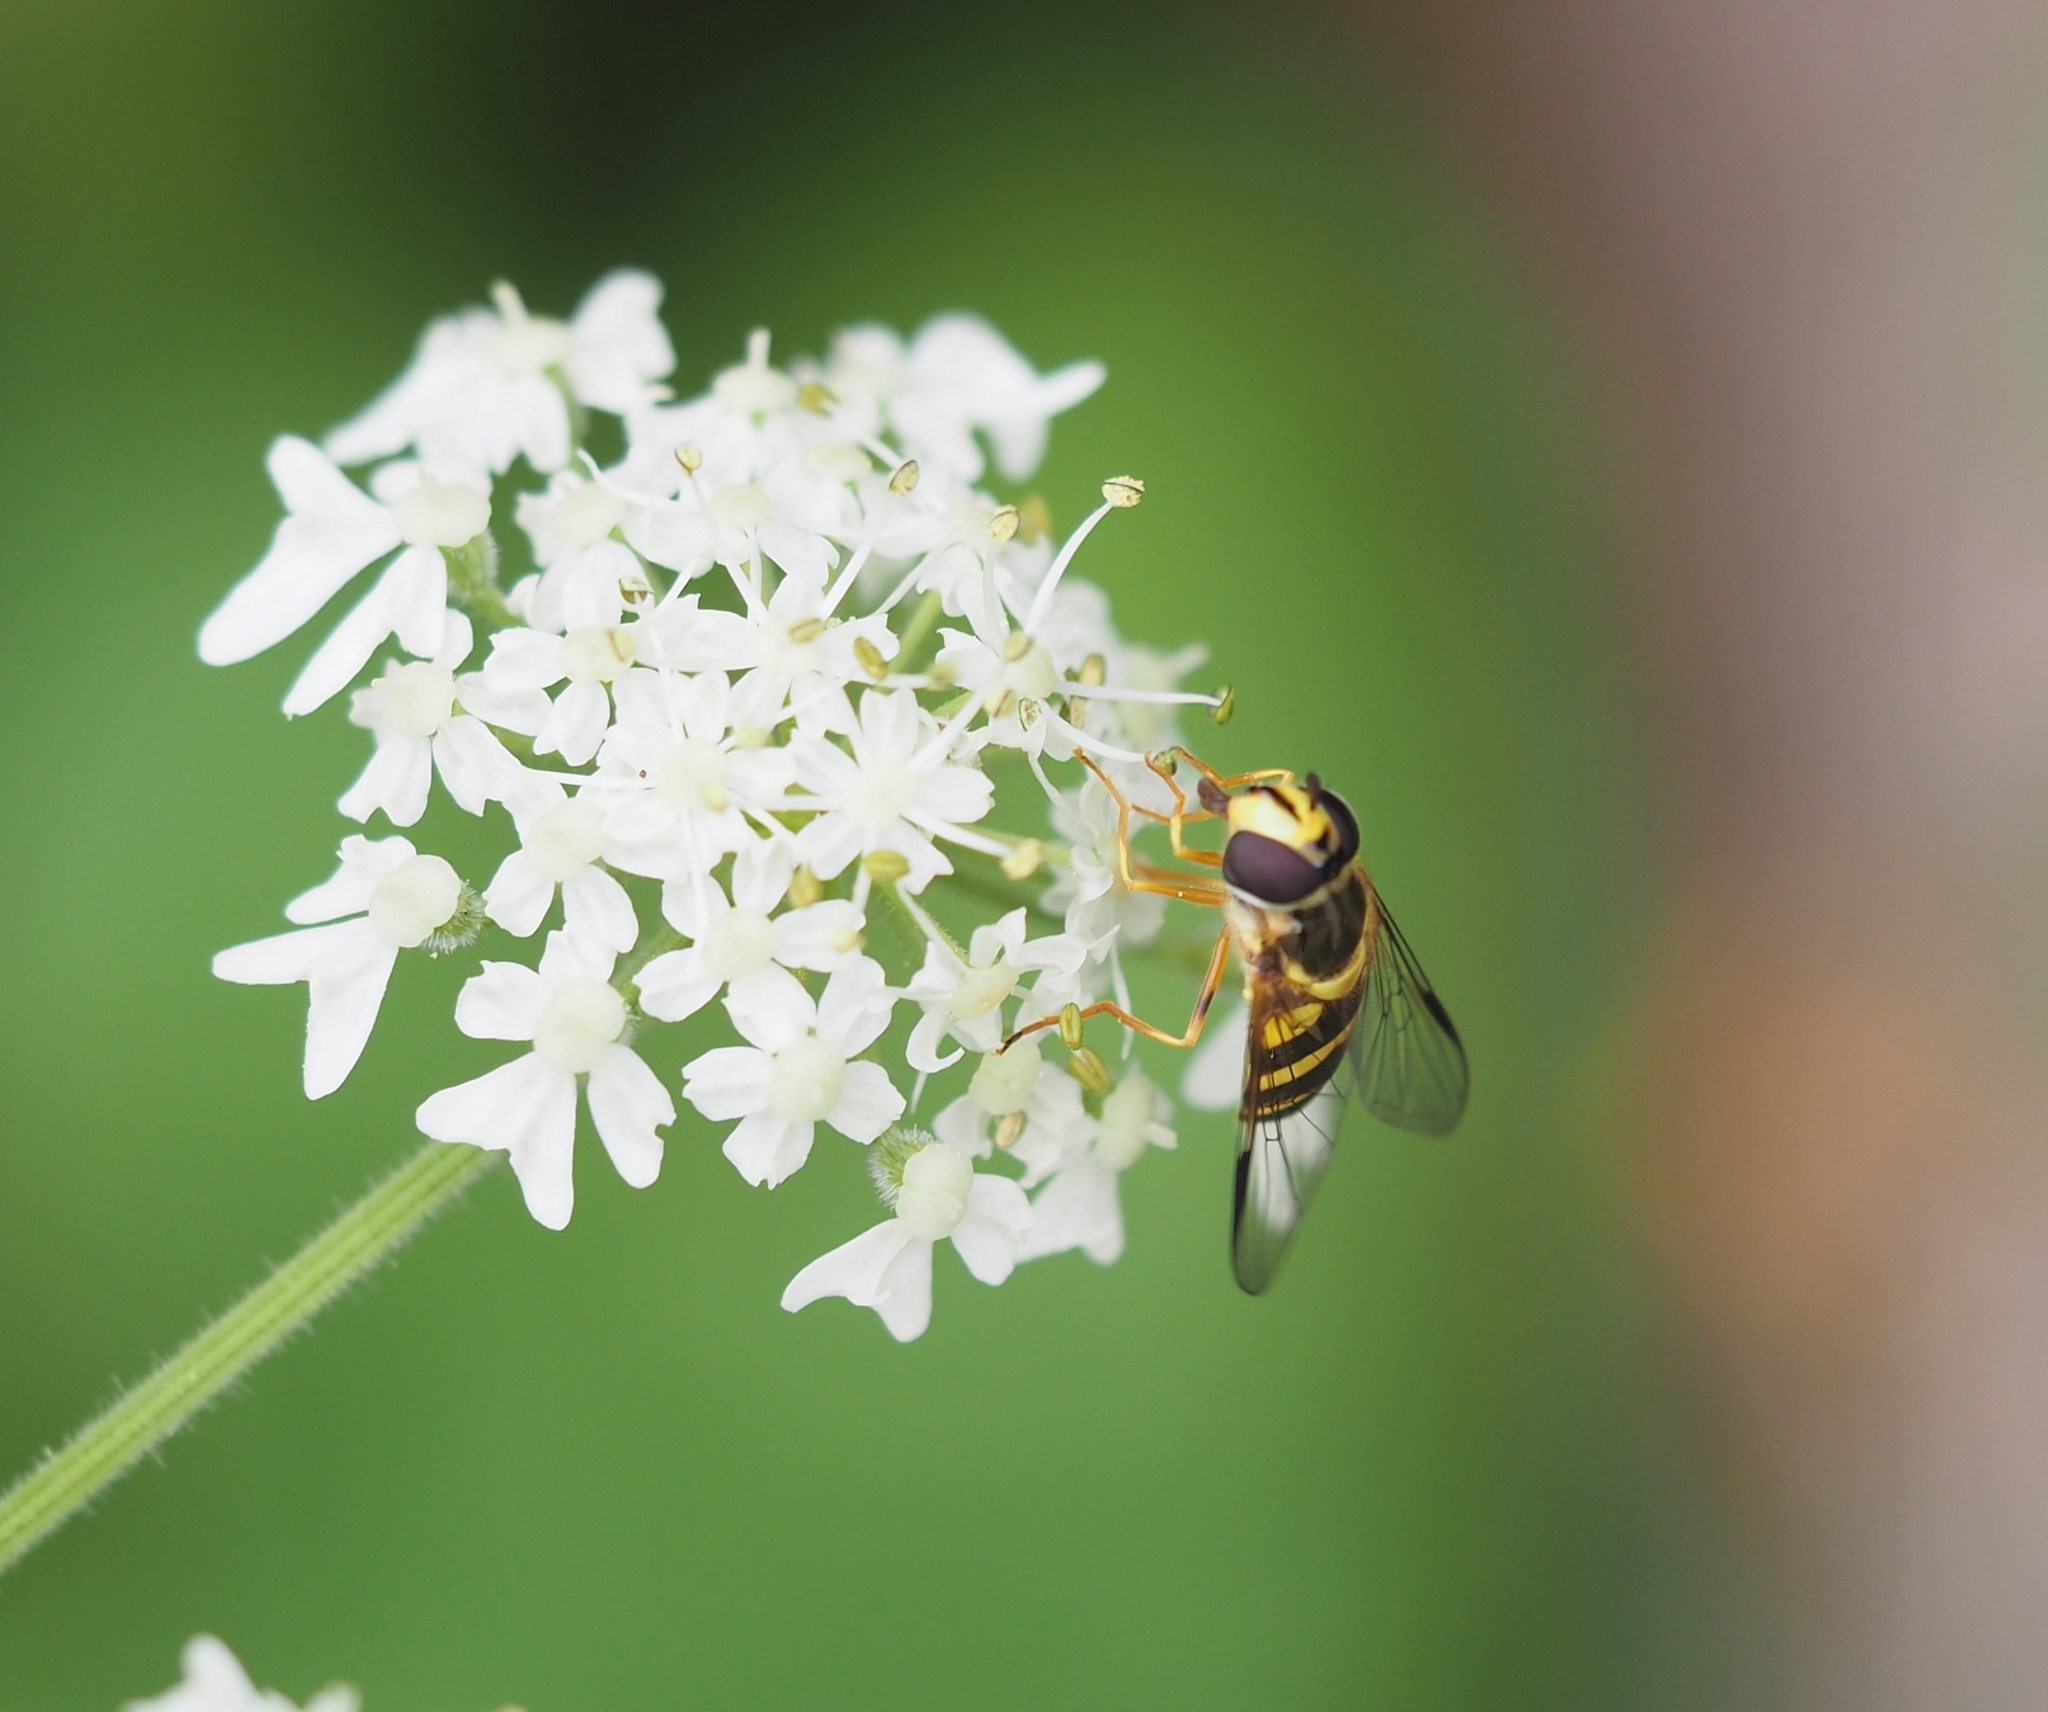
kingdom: Animalia
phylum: Arthropoda
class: Insecta
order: Diptera
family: Syrphidae
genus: Dasysyrphus
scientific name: Dasysyrphus albostriatus
